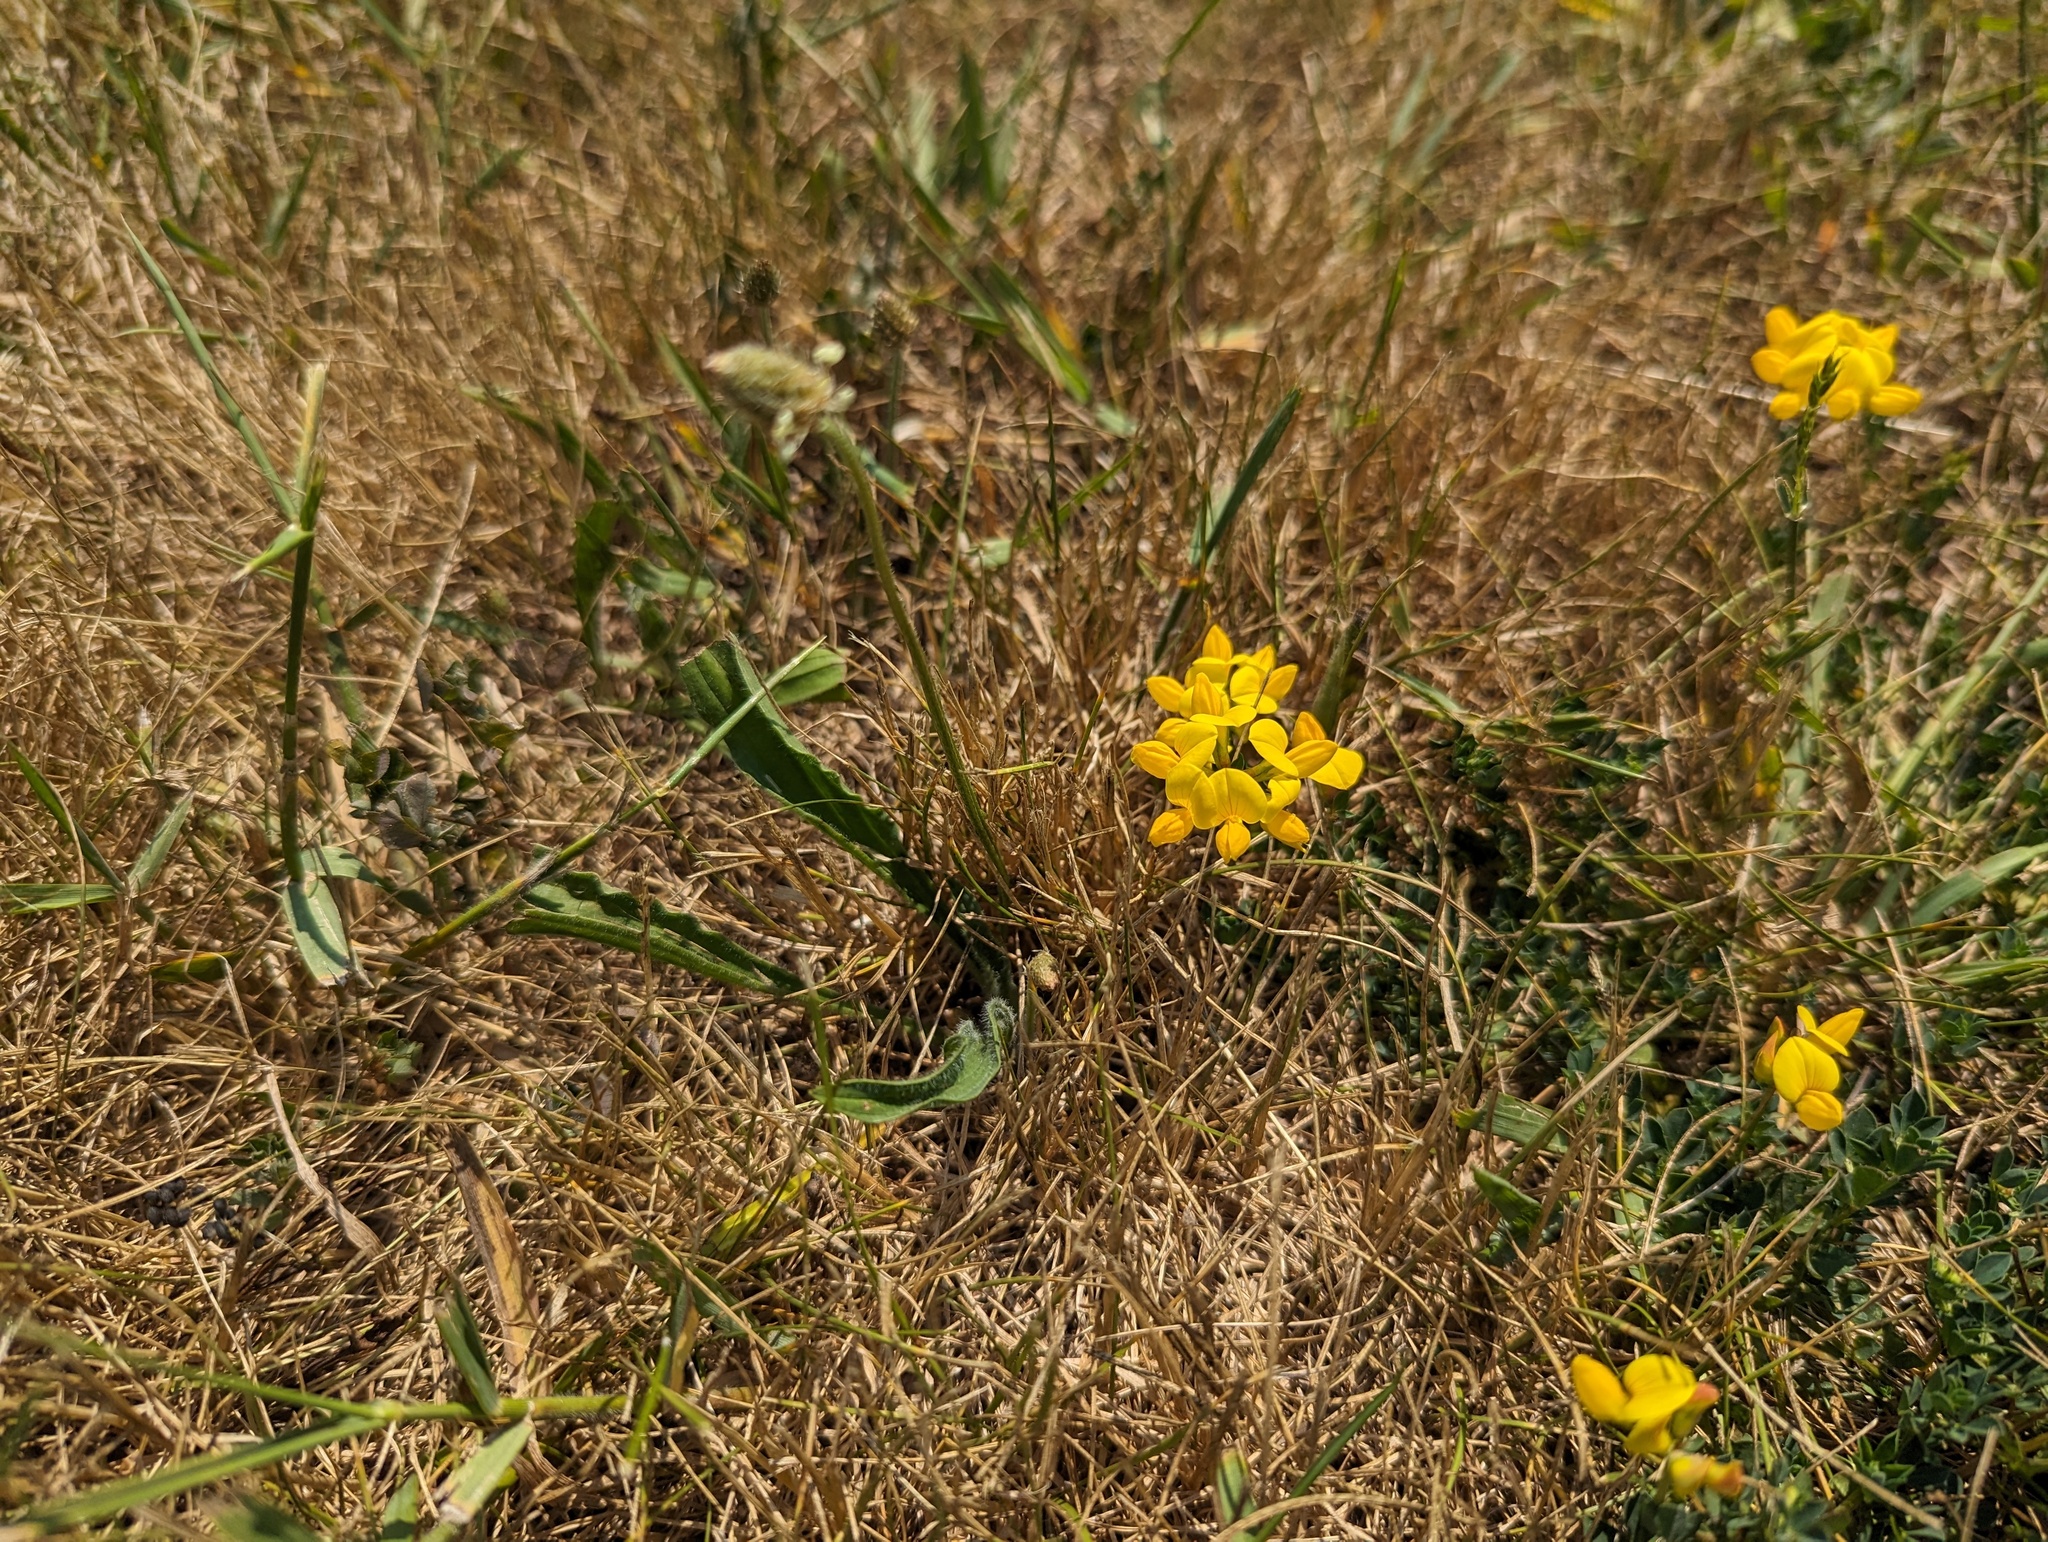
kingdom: Plantae
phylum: Tracheophyta
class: Magnoliopsida
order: Fabales
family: Fabaceae
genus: Lotus
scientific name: Lotus corniculatus
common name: Common bird's-foot-trefoil
